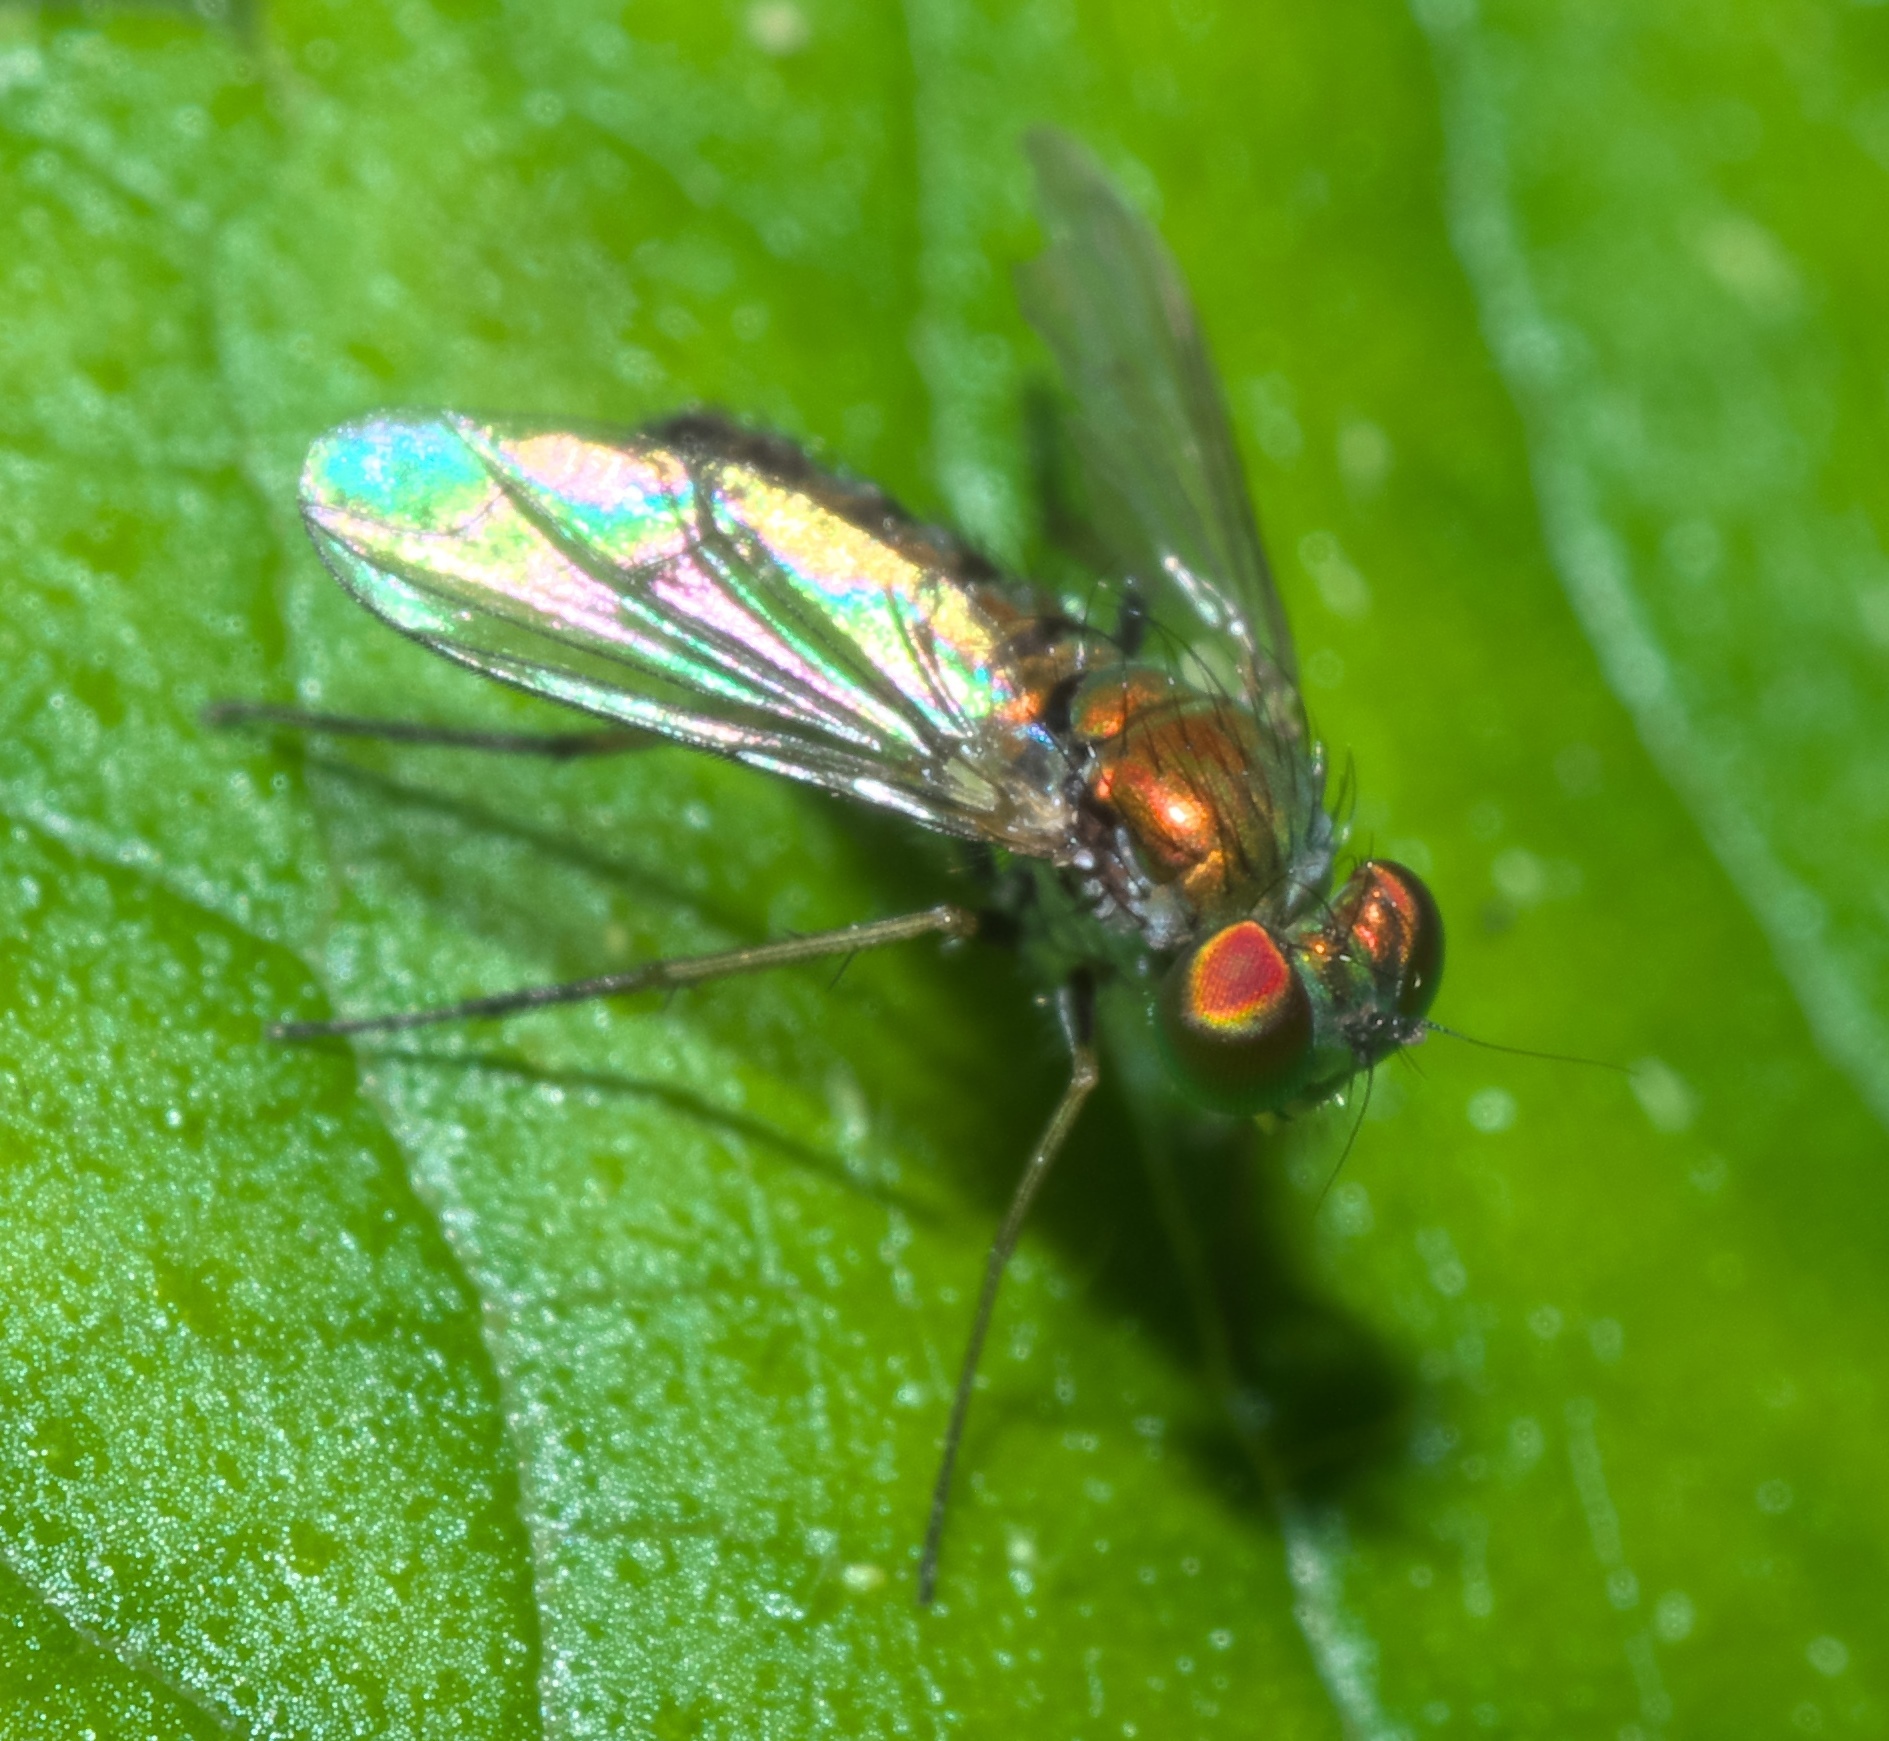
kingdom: Animalia
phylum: Arthropoda
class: Insecta
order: Diptera
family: Dolichopodidae
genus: Condylostylus
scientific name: Condylostylus caudatus
